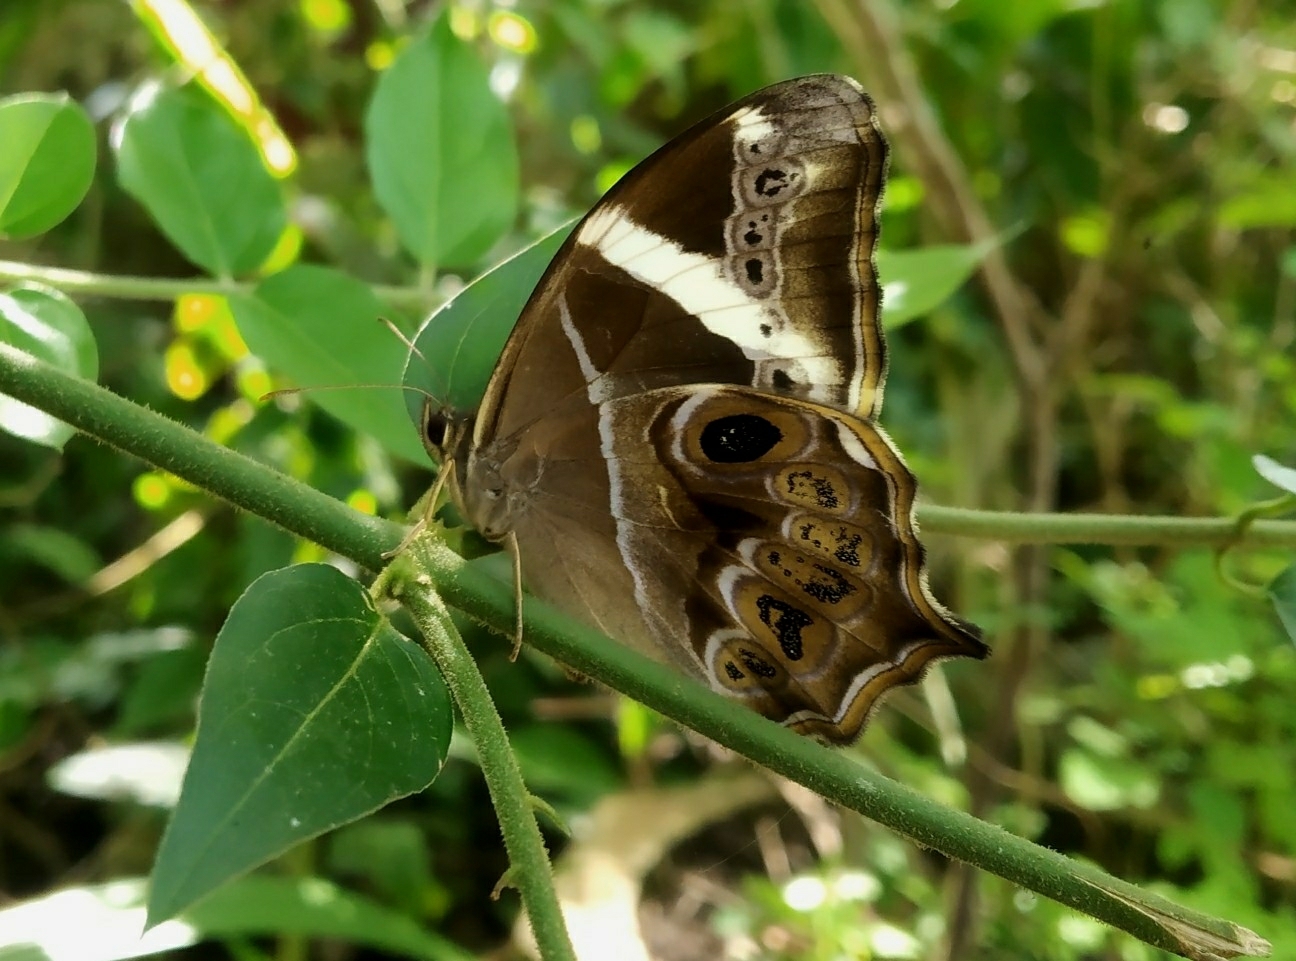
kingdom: Animalia
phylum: Arthropoda
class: Insecta
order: Lepidoptera
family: Nymphalidae
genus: Lethe
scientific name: Lethe europa
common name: Bamboo treebrown
